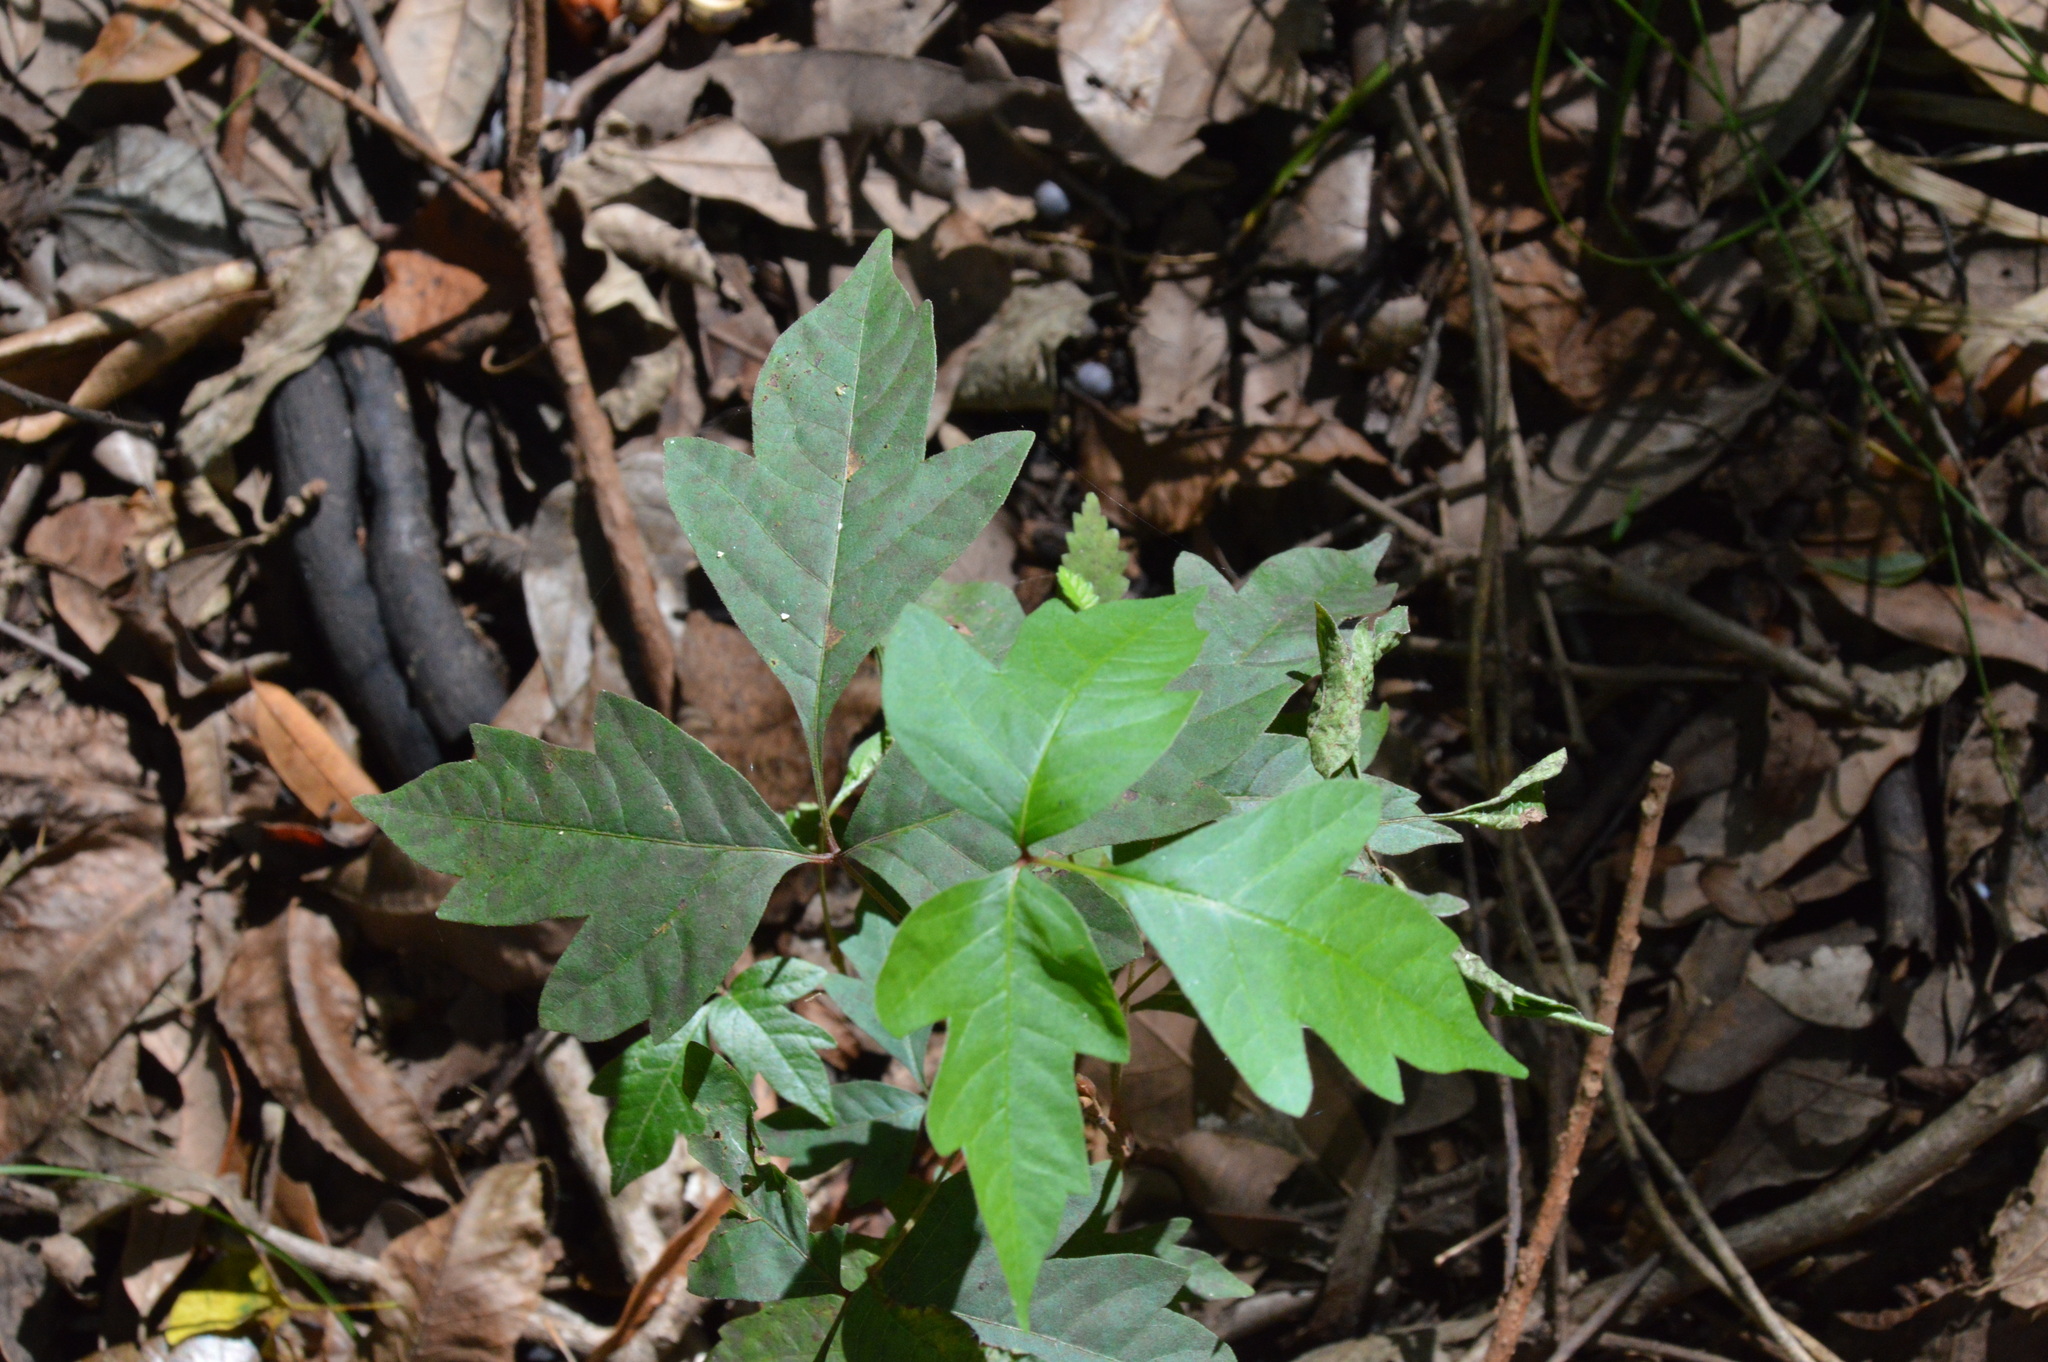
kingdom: Plantae
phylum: Tracheophyta
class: Magnoliopsida
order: Sapindales
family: Anacardiaceae
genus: Toxicodendron
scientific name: Toxicodendron radicans
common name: Poison ivy
